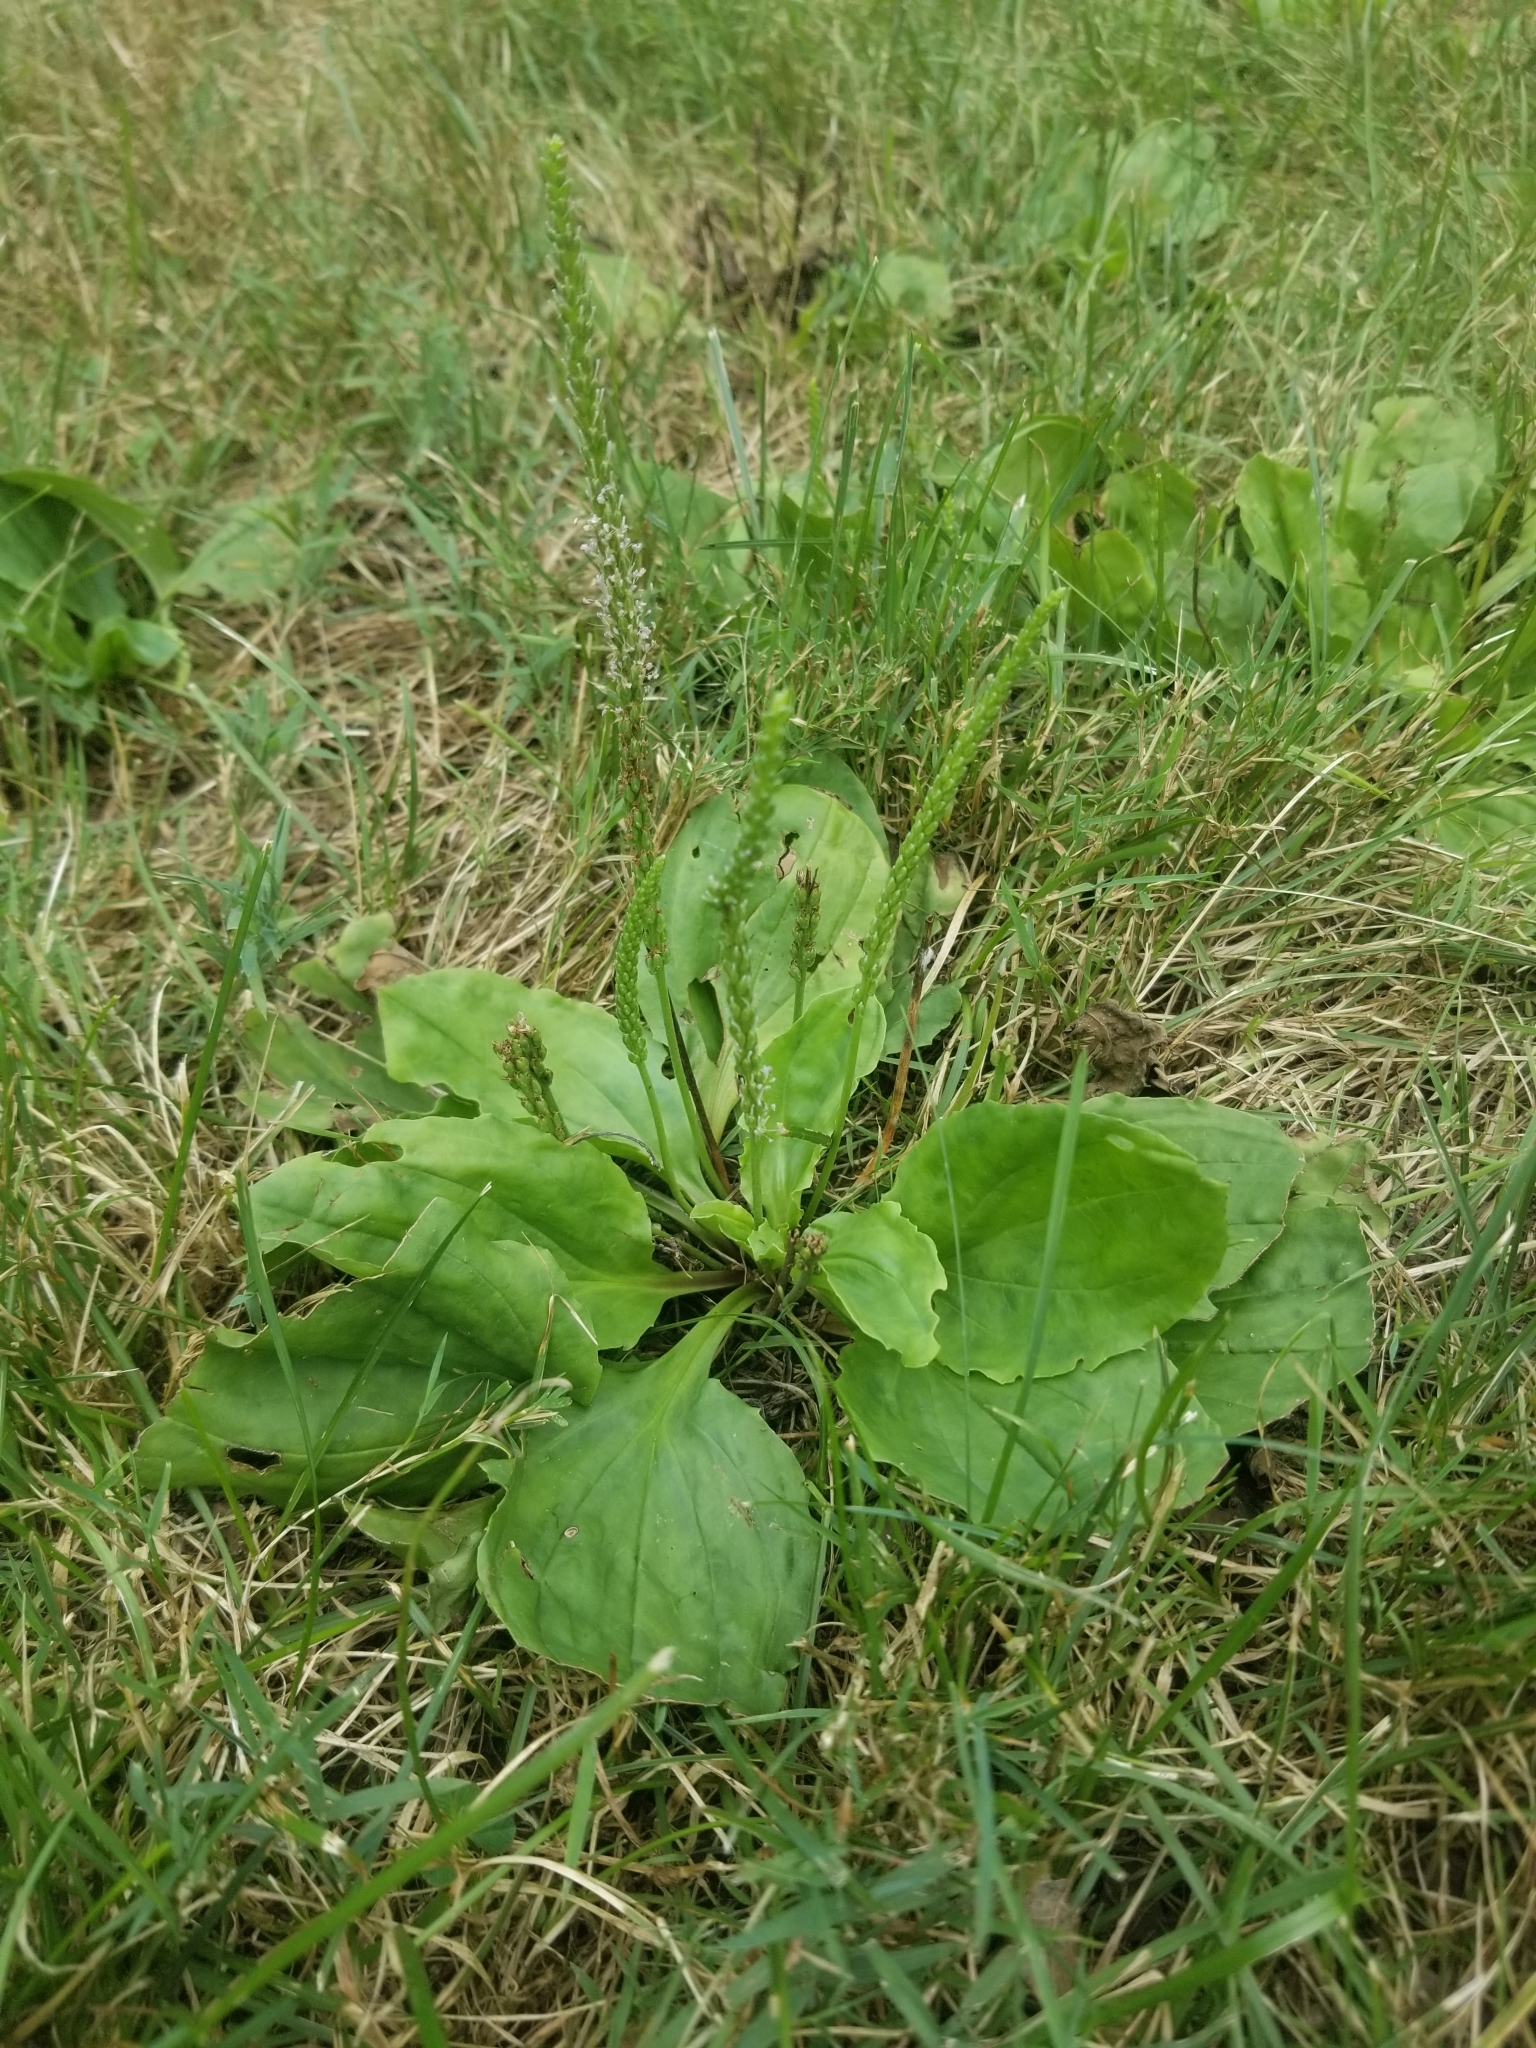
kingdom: Plantae
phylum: Tracheophyta
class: Magnoliopsida
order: Lamiales
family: Plantaginaceae
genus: Plantago
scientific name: Plantago rugelii
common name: American plantain
